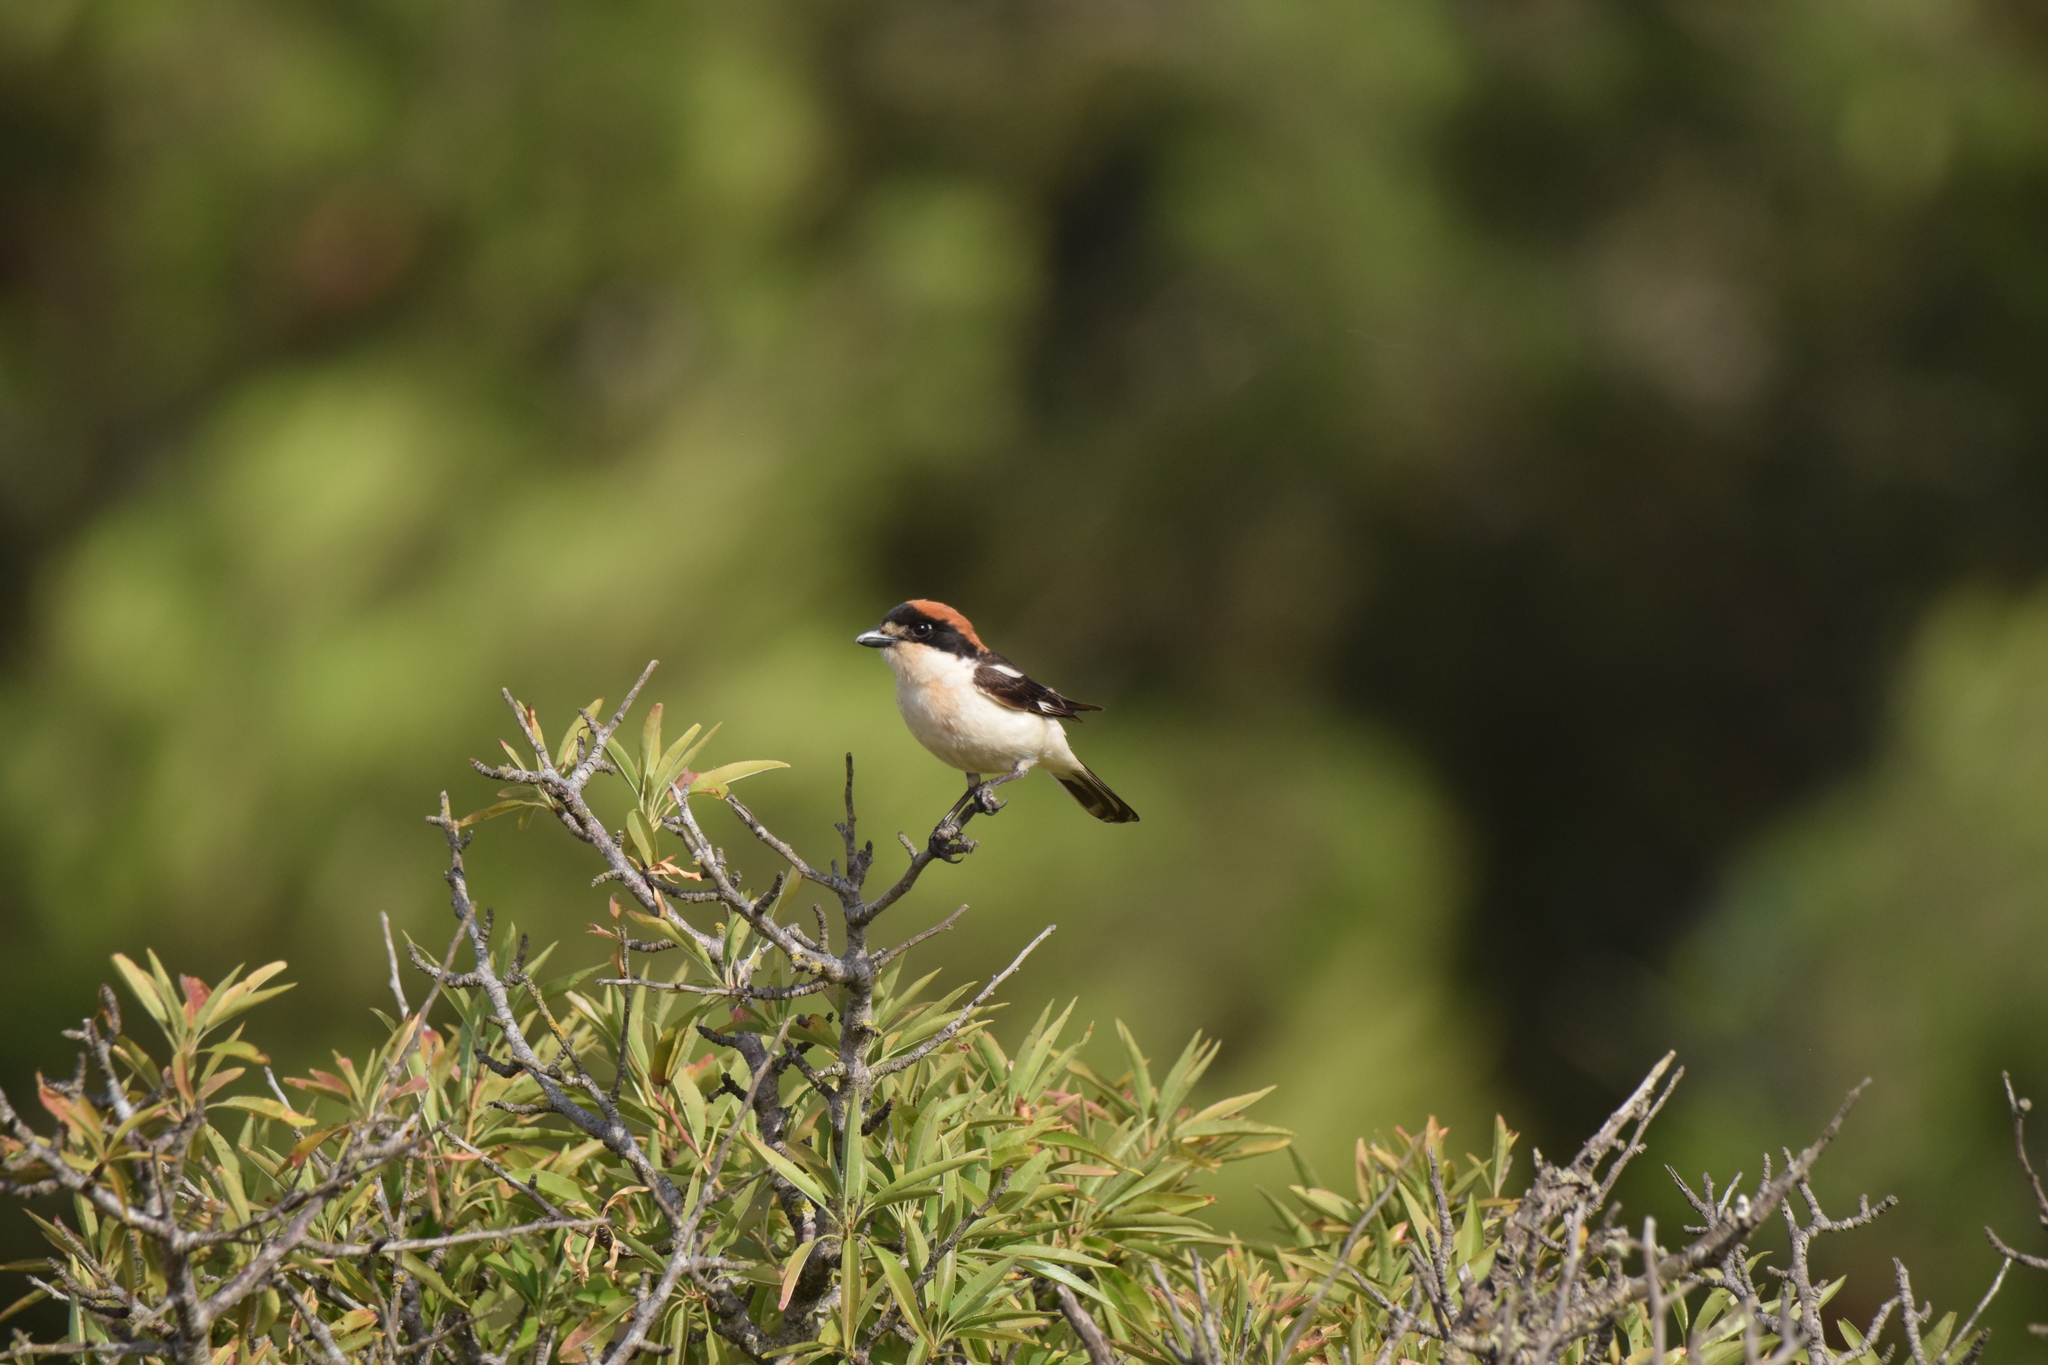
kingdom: Animalia
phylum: Chordata
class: Aves
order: Passeriformes
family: Laniidae
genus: Lanius
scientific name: Lanius senator
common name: Woodchat shrike
